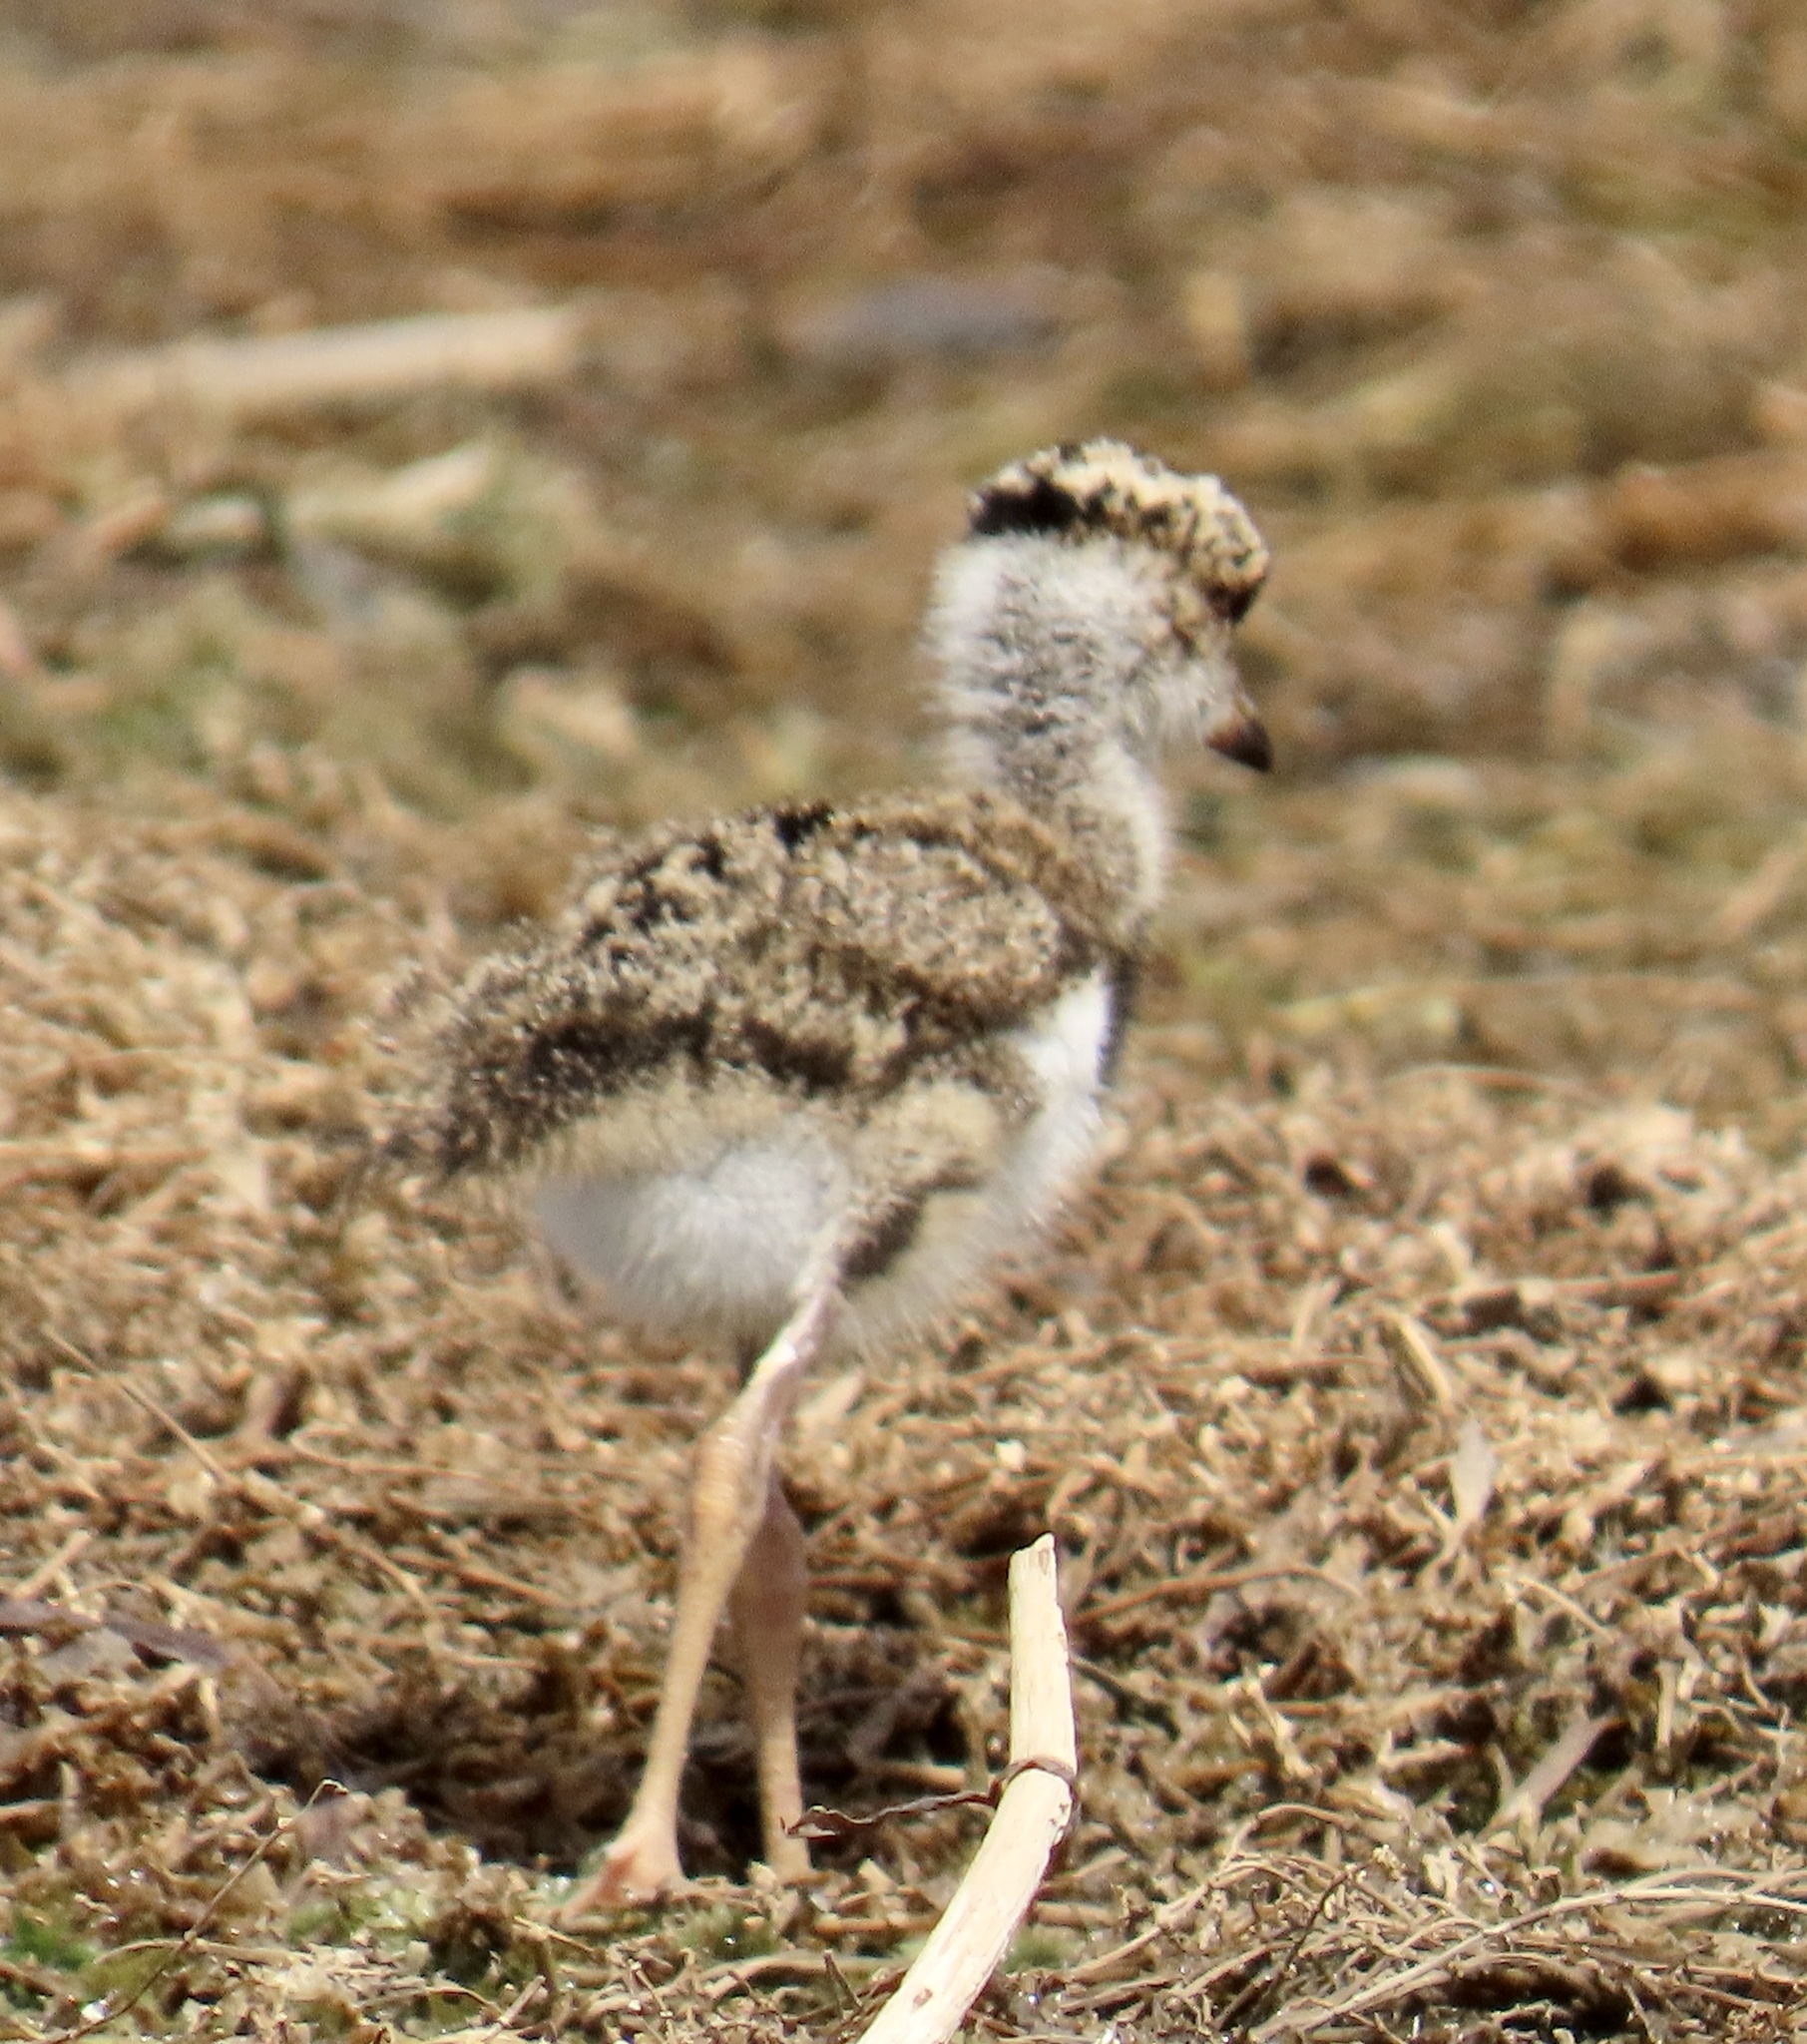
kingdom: Animalia
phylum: Chordata
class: Aves
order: Charadriiformes
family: Charadriidae
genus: Vanellus
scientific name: Vanellus chilensis
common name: Southern lapwing
